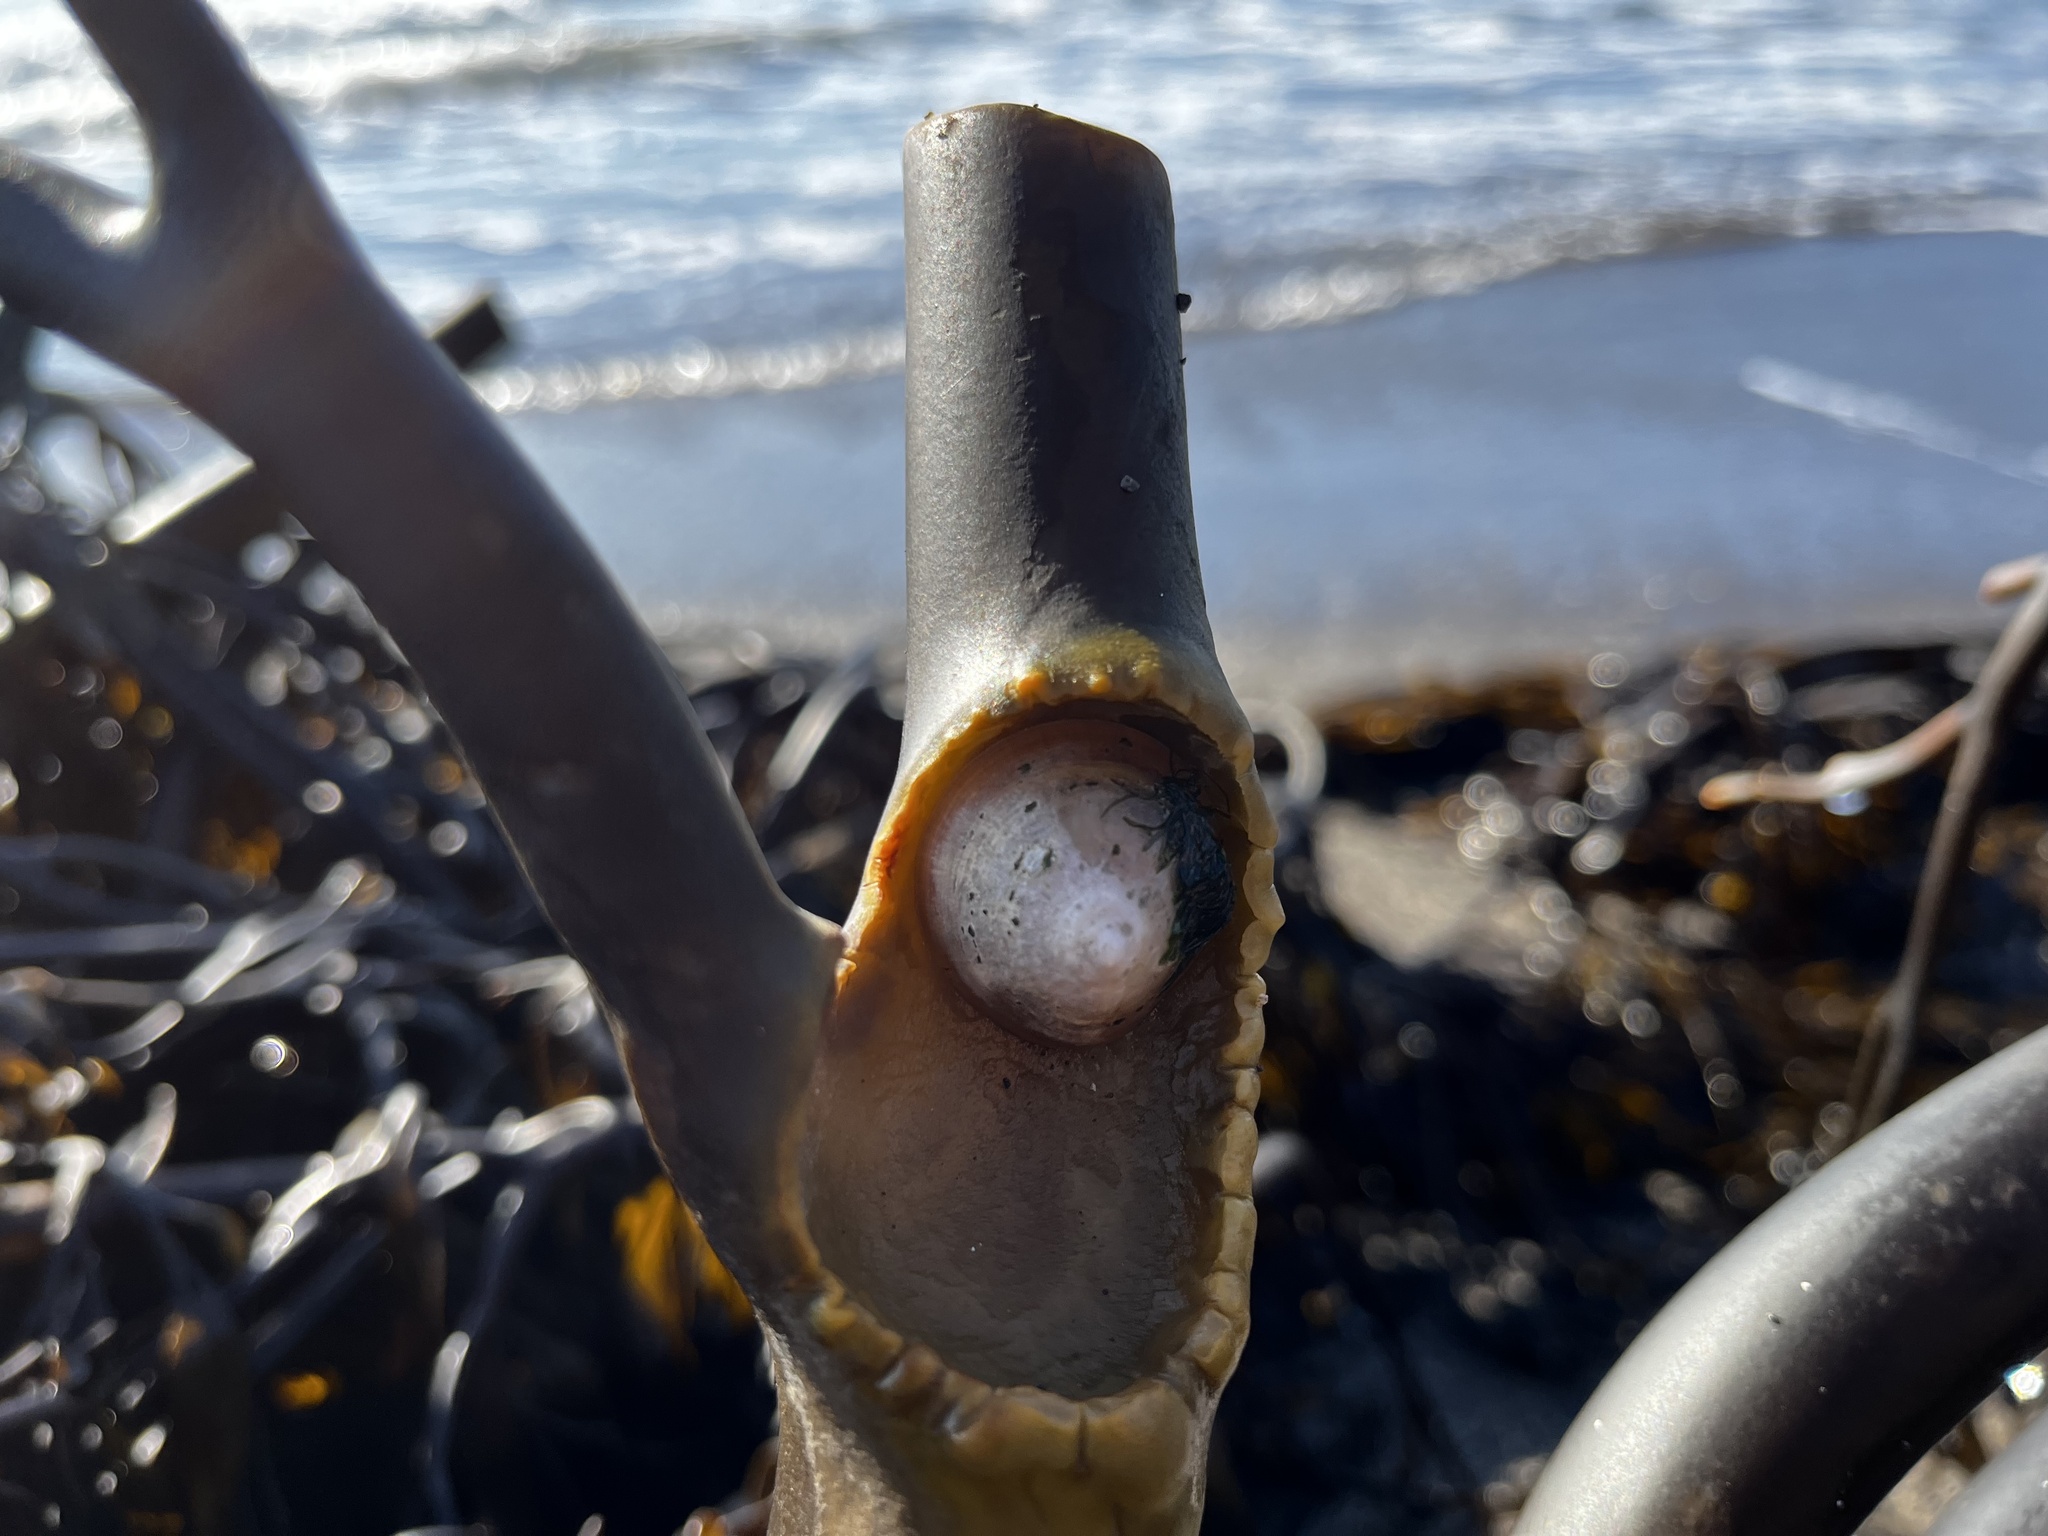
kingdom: Animalia
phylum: Mollusca
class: Gastropoda
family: Lottiidae
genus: Scurria
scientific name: Scurria scurra
